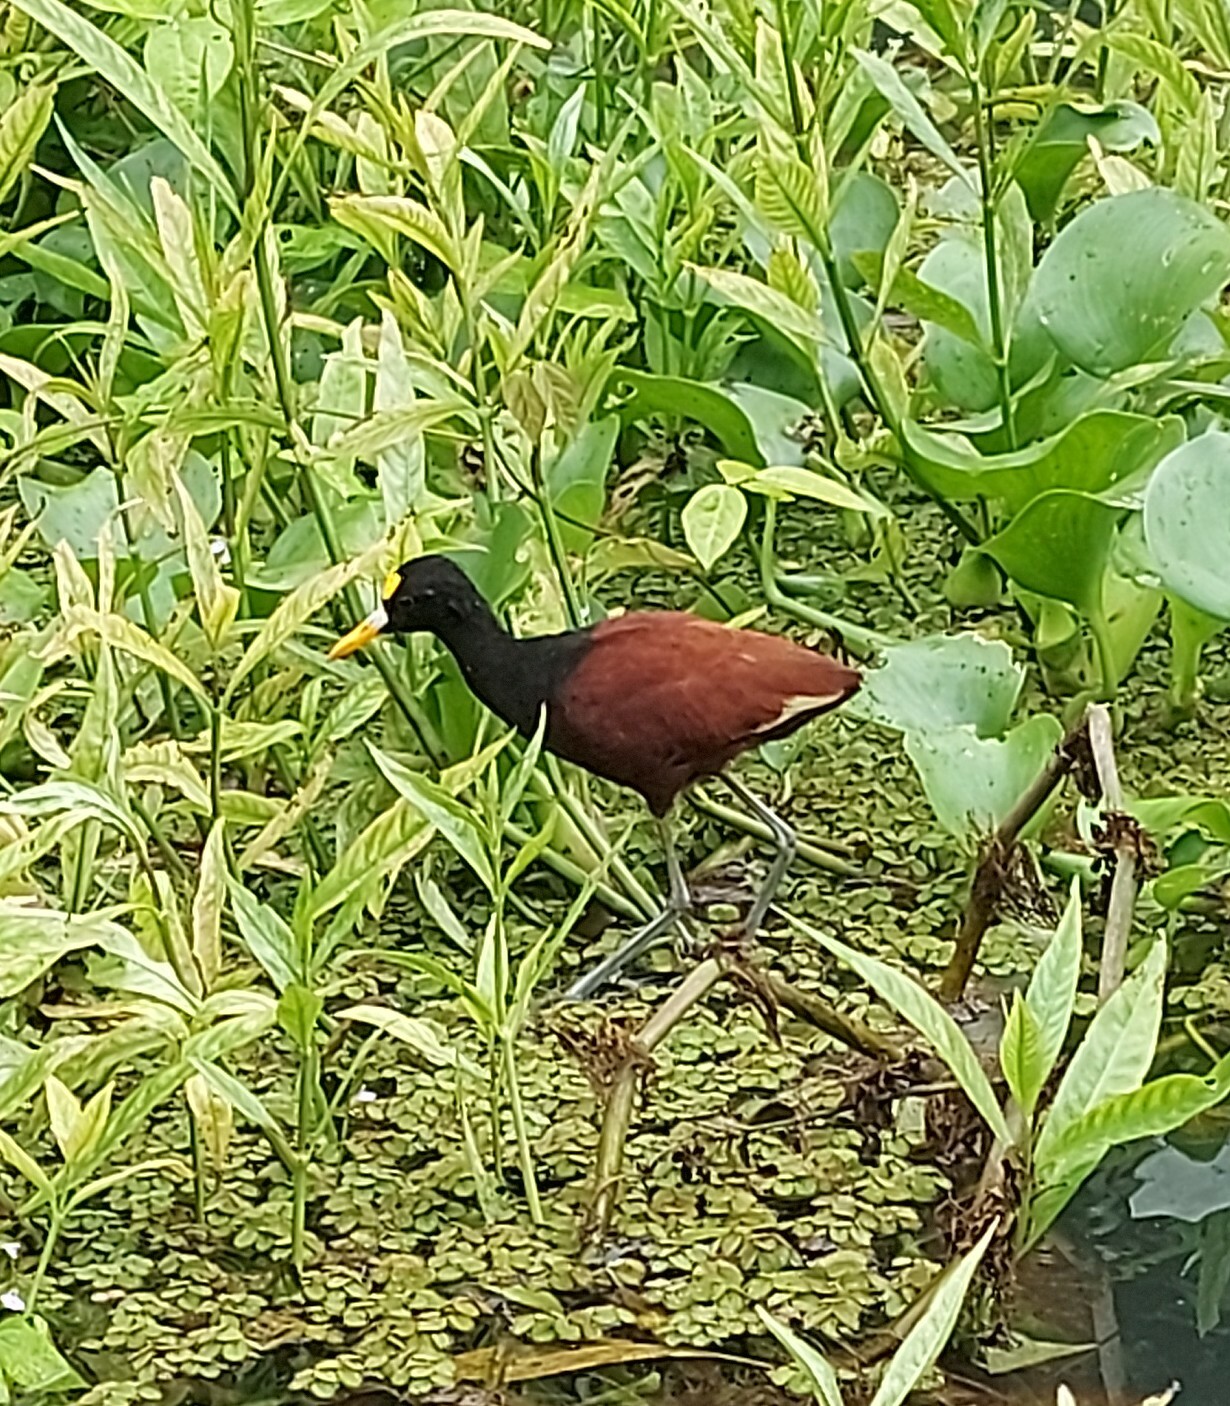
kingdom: Animalia
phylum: Chordata
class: Aves
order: Charadriiformes
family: Jacanidae
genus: Jacana
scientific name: Jacana spinosa
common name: Northern jacana
